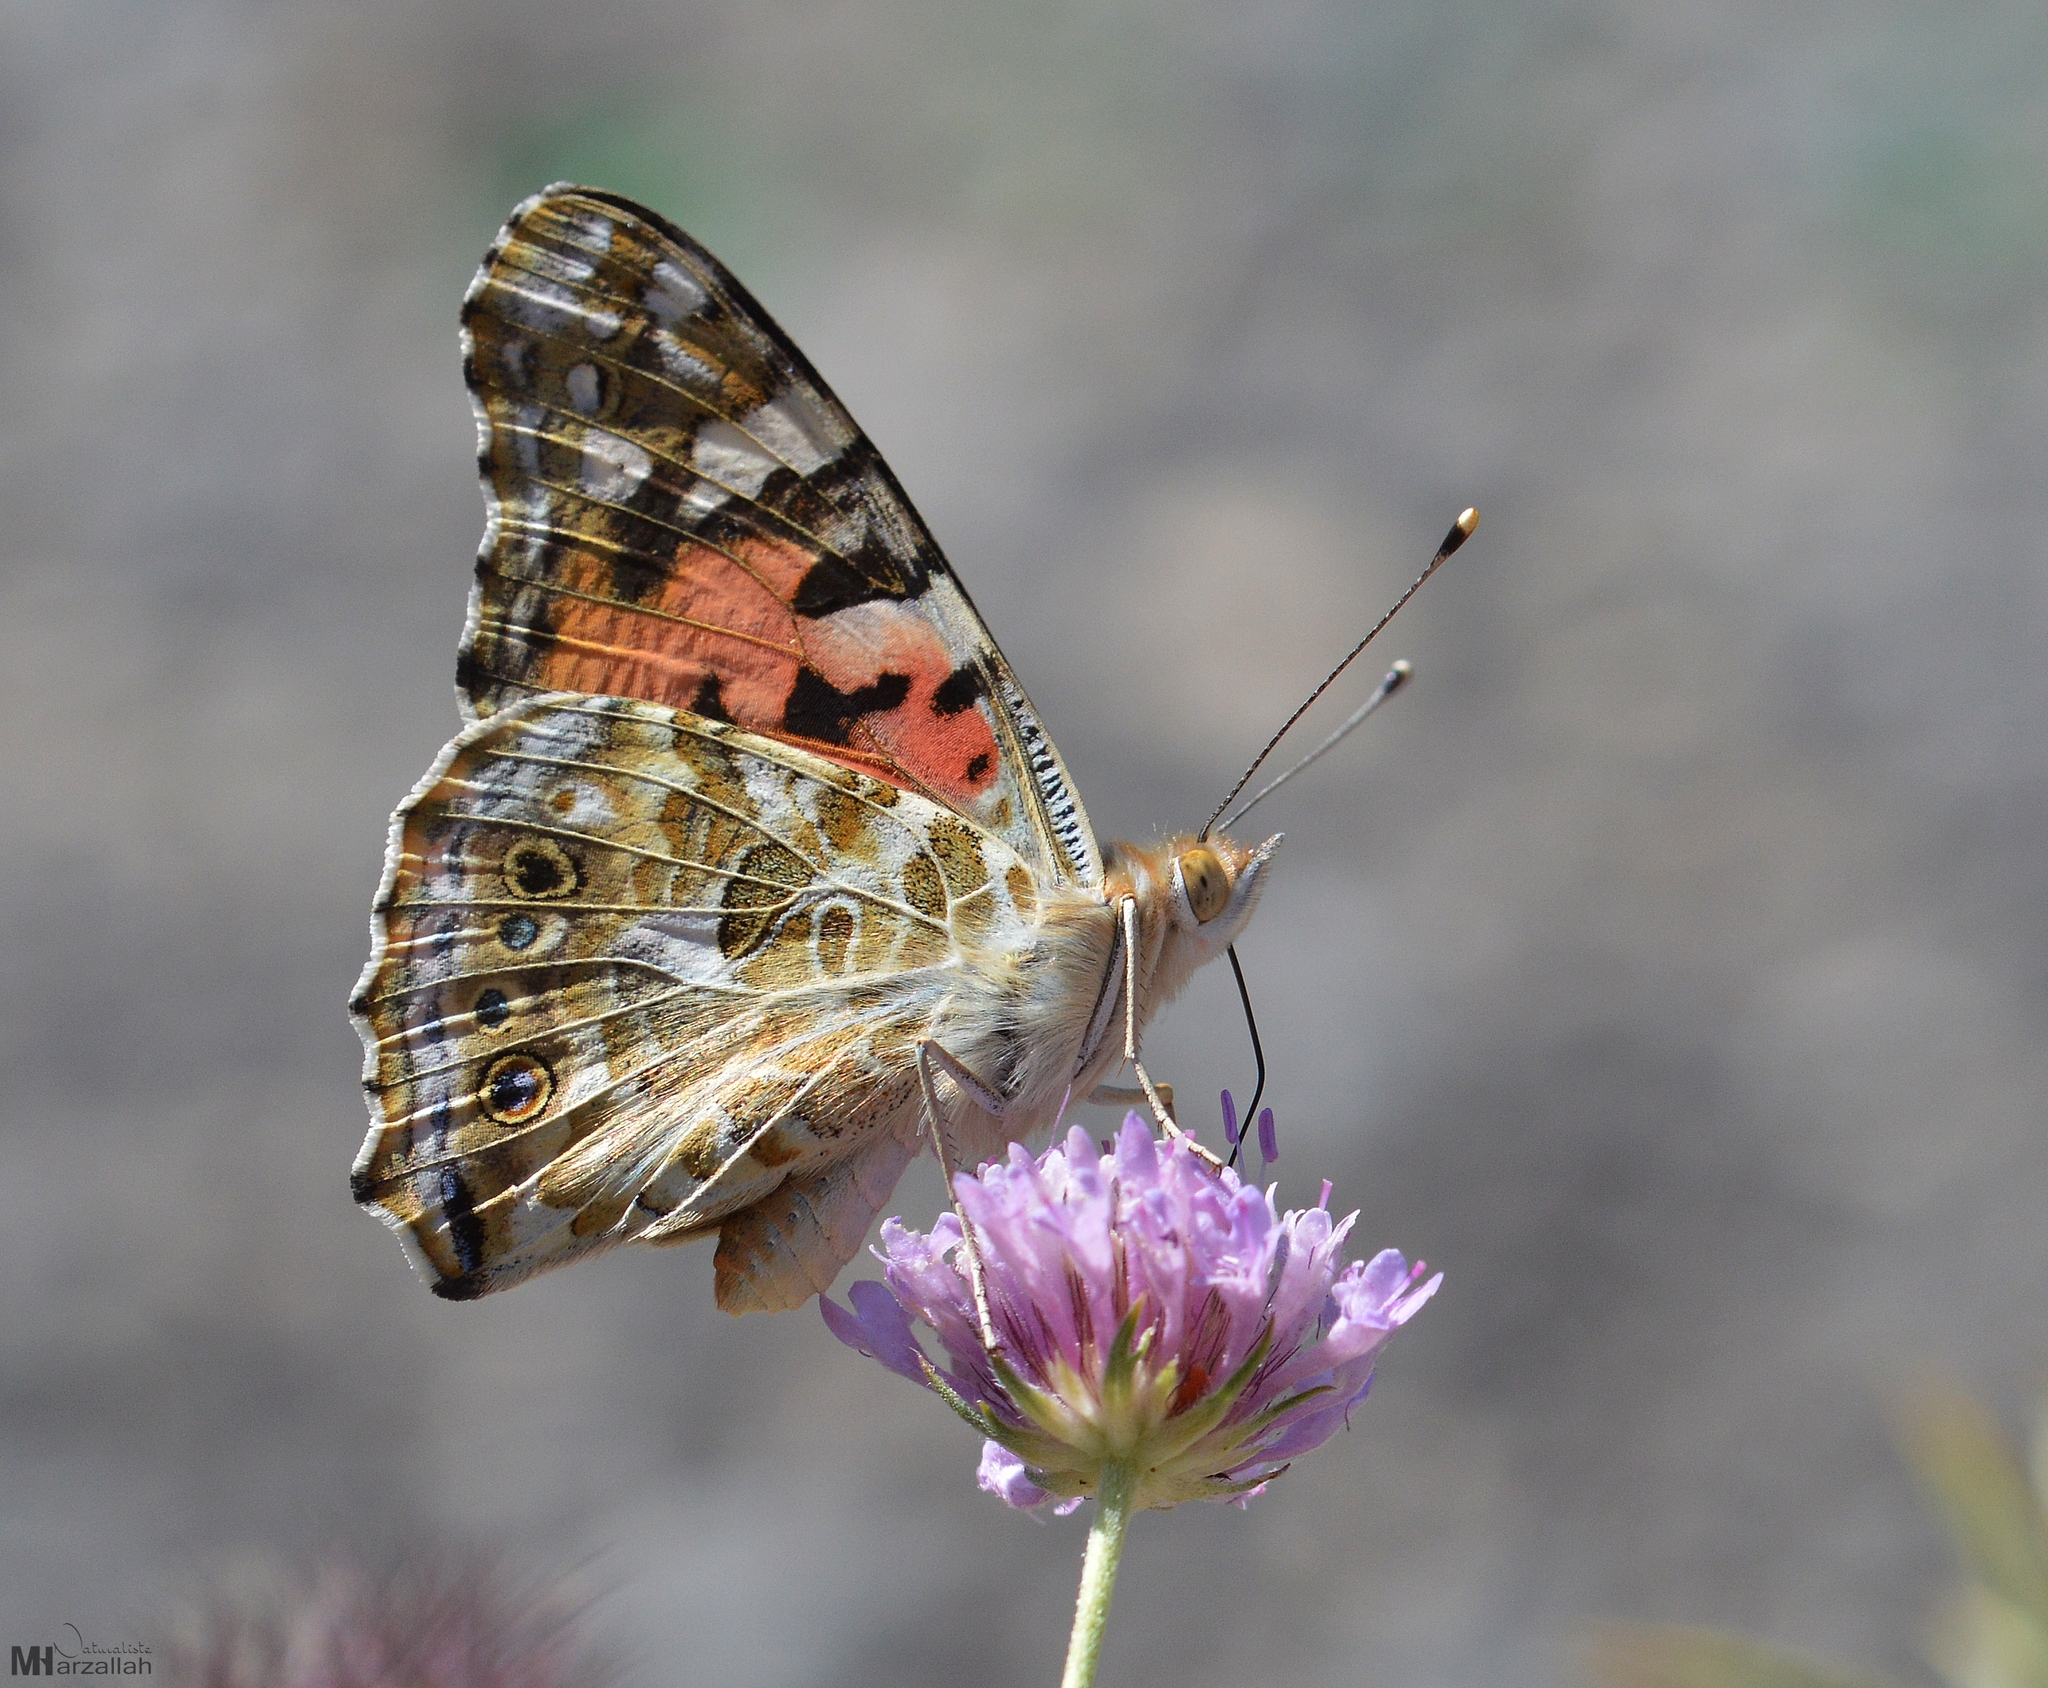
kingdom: Animalia
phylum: Arthropoda
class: Insecta
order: Lepidoptera
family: Nymphalidae
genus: Vanessa
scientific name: Vanessa cardui
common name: Painted lady
